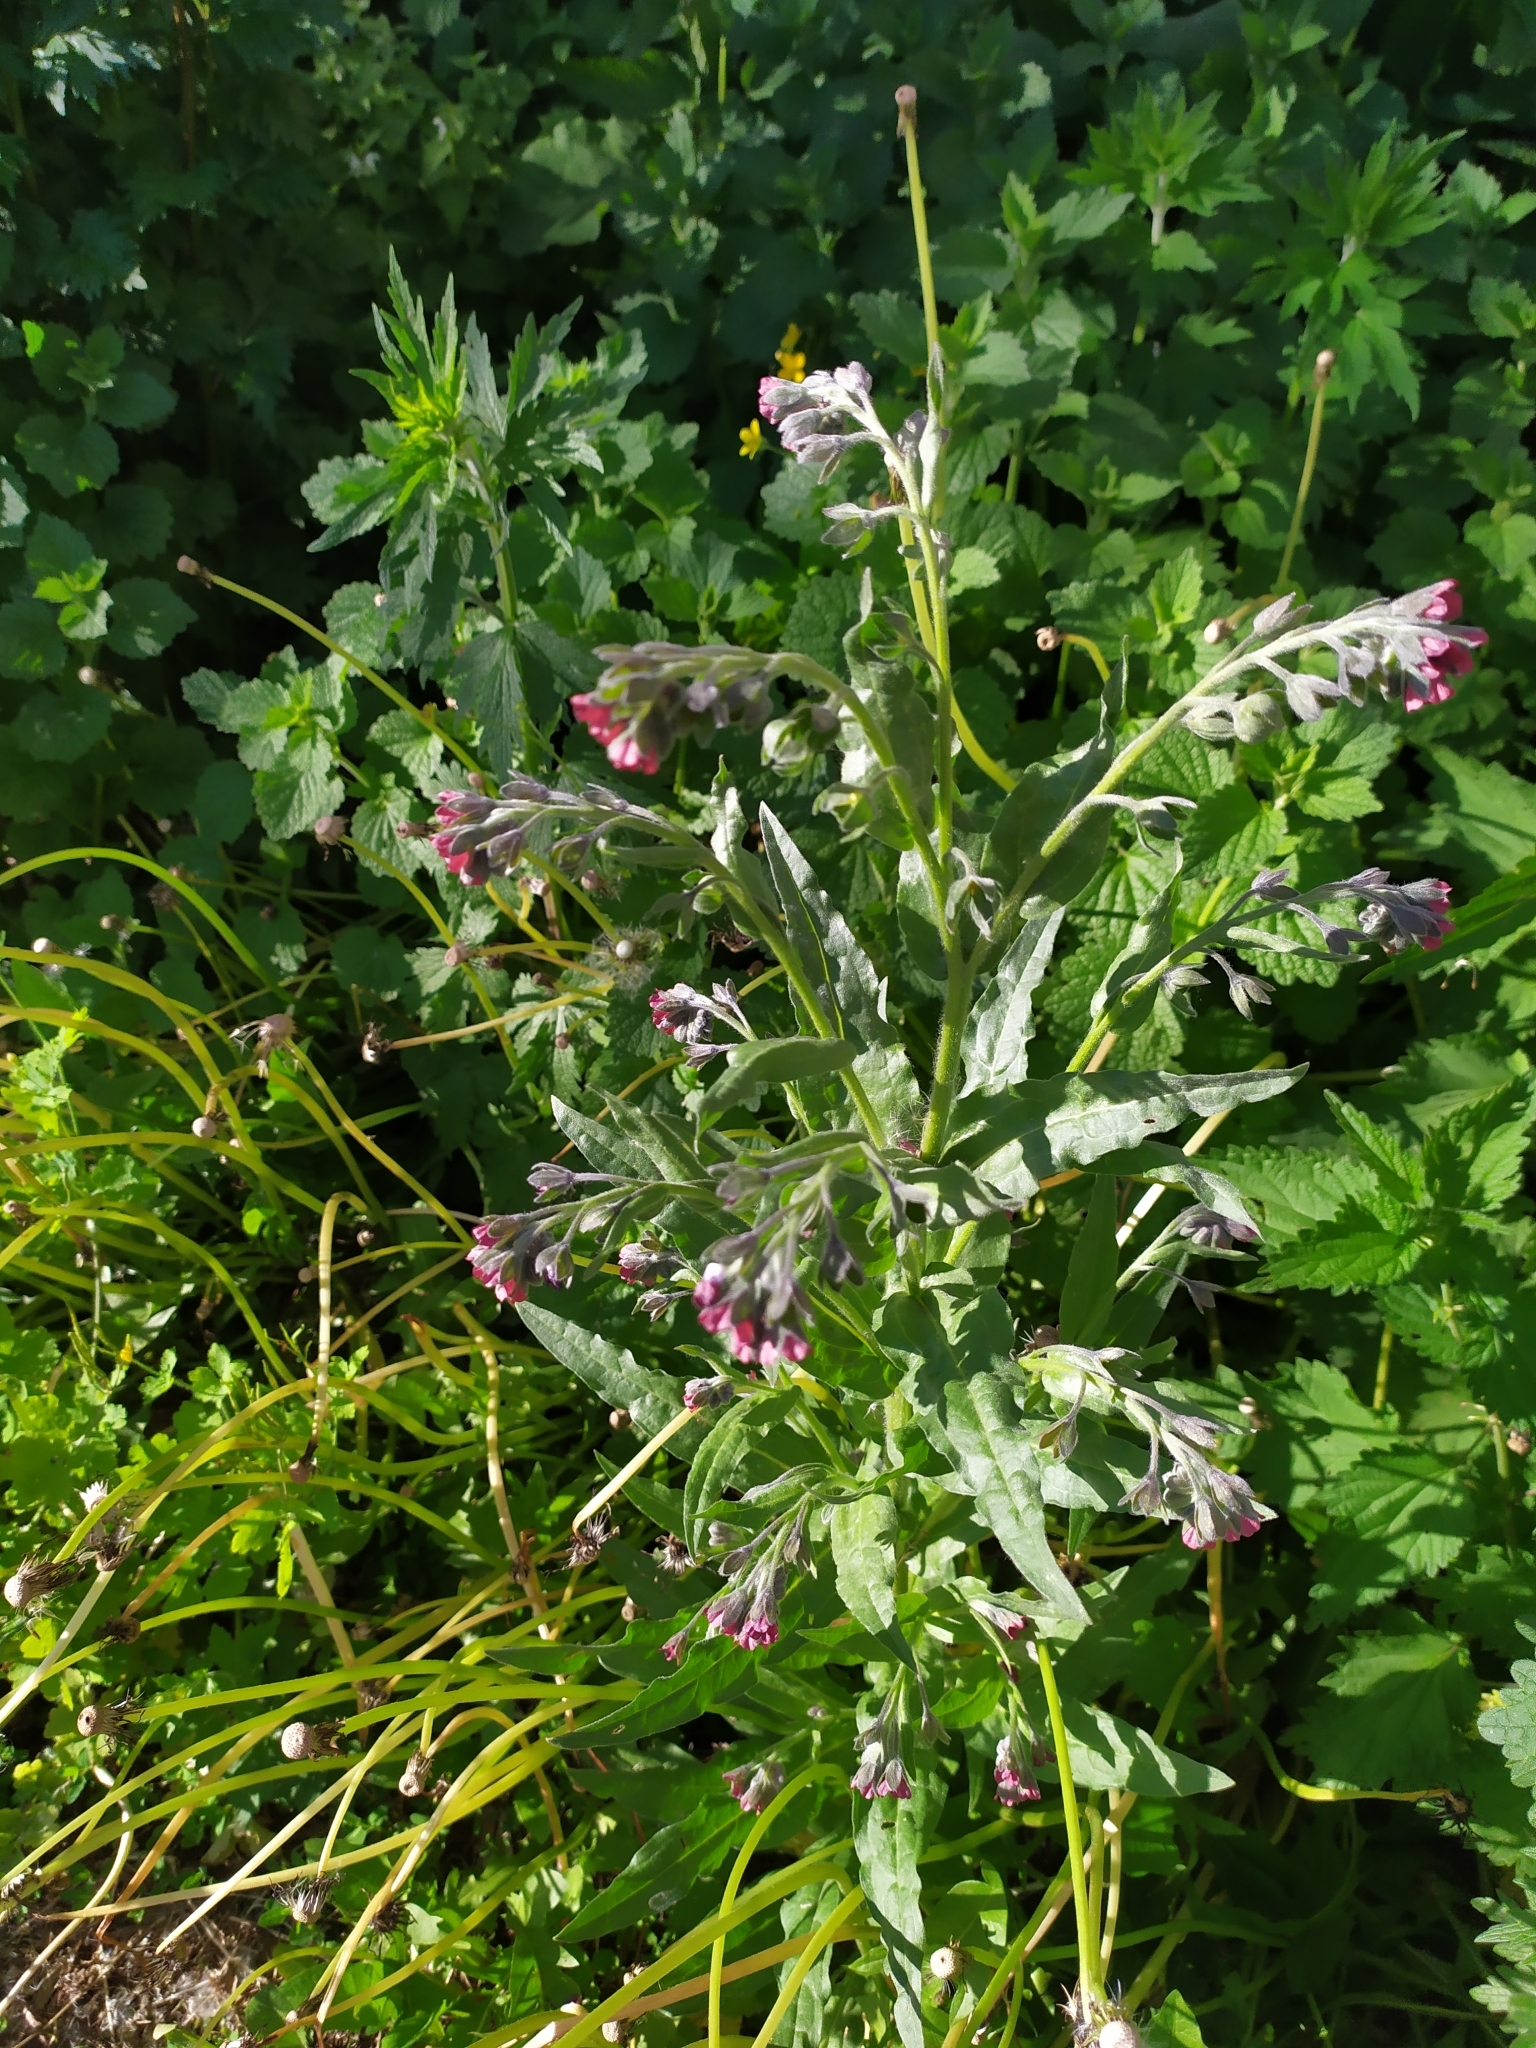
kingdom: Plantae
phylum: Tracheophyta
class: Magnoliopsida
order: Boraginales
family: Boraginaceae
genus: Cynoglossum
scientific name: Cynoglossum officinale
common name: Hound's-tongue
